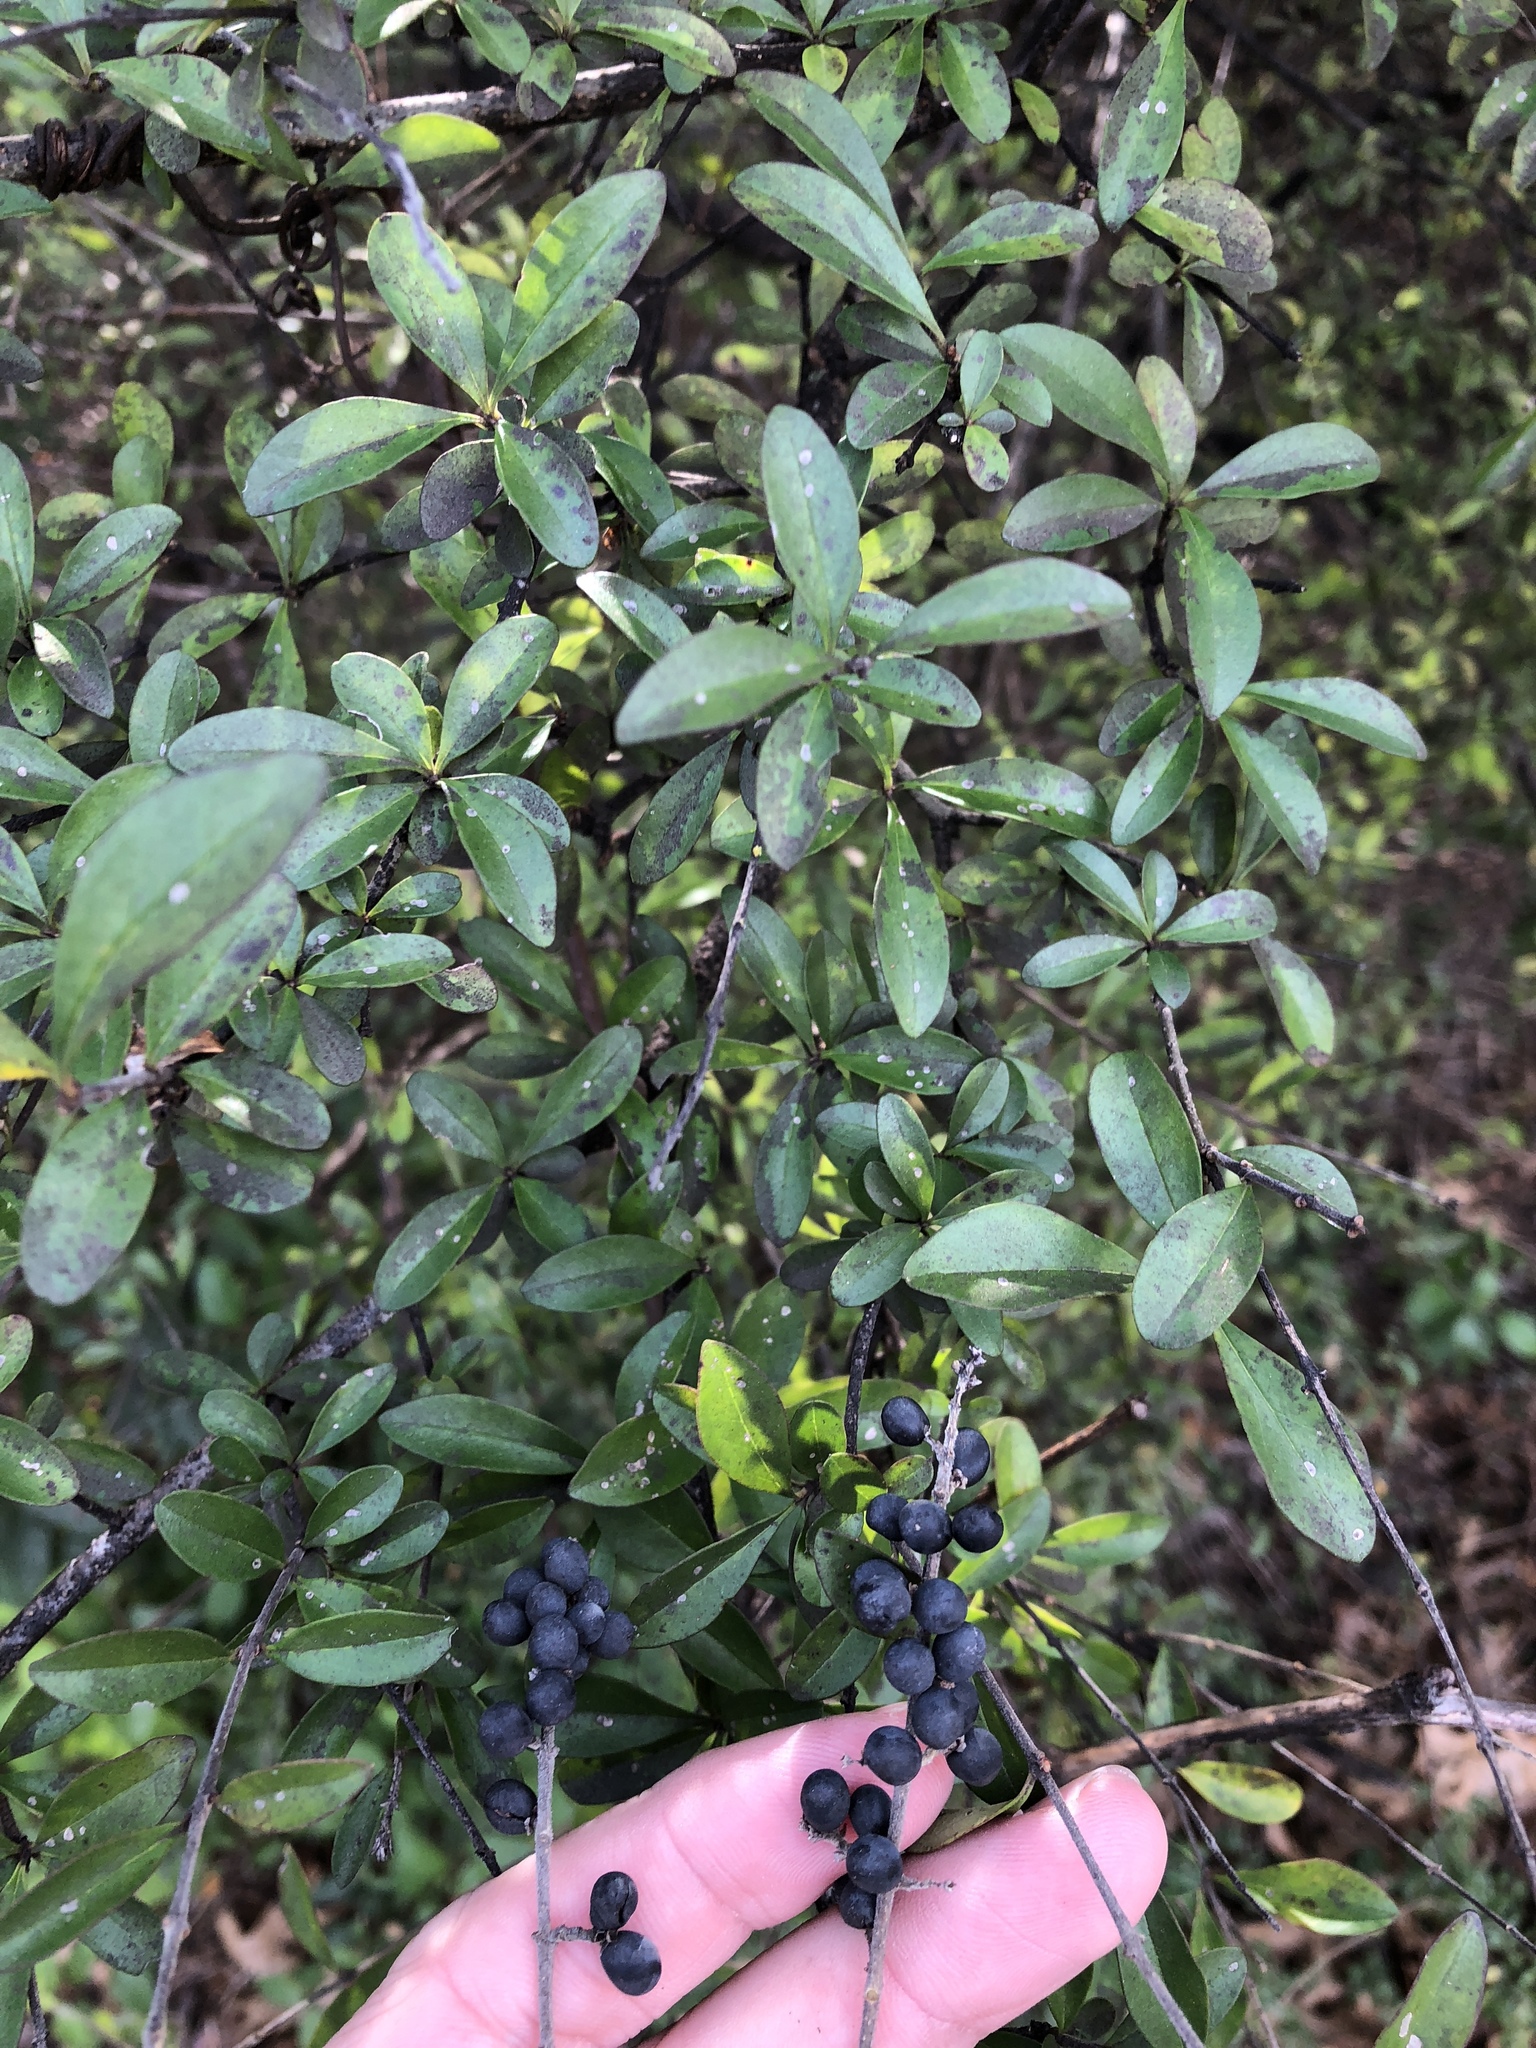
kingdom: Plantae
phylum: Tracheophyta
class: Magnoliopsida
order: Lamiales
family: Oleaceae
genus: Ligustrum
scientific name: Ligustrum quihoui
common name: Waxyleaf privet
